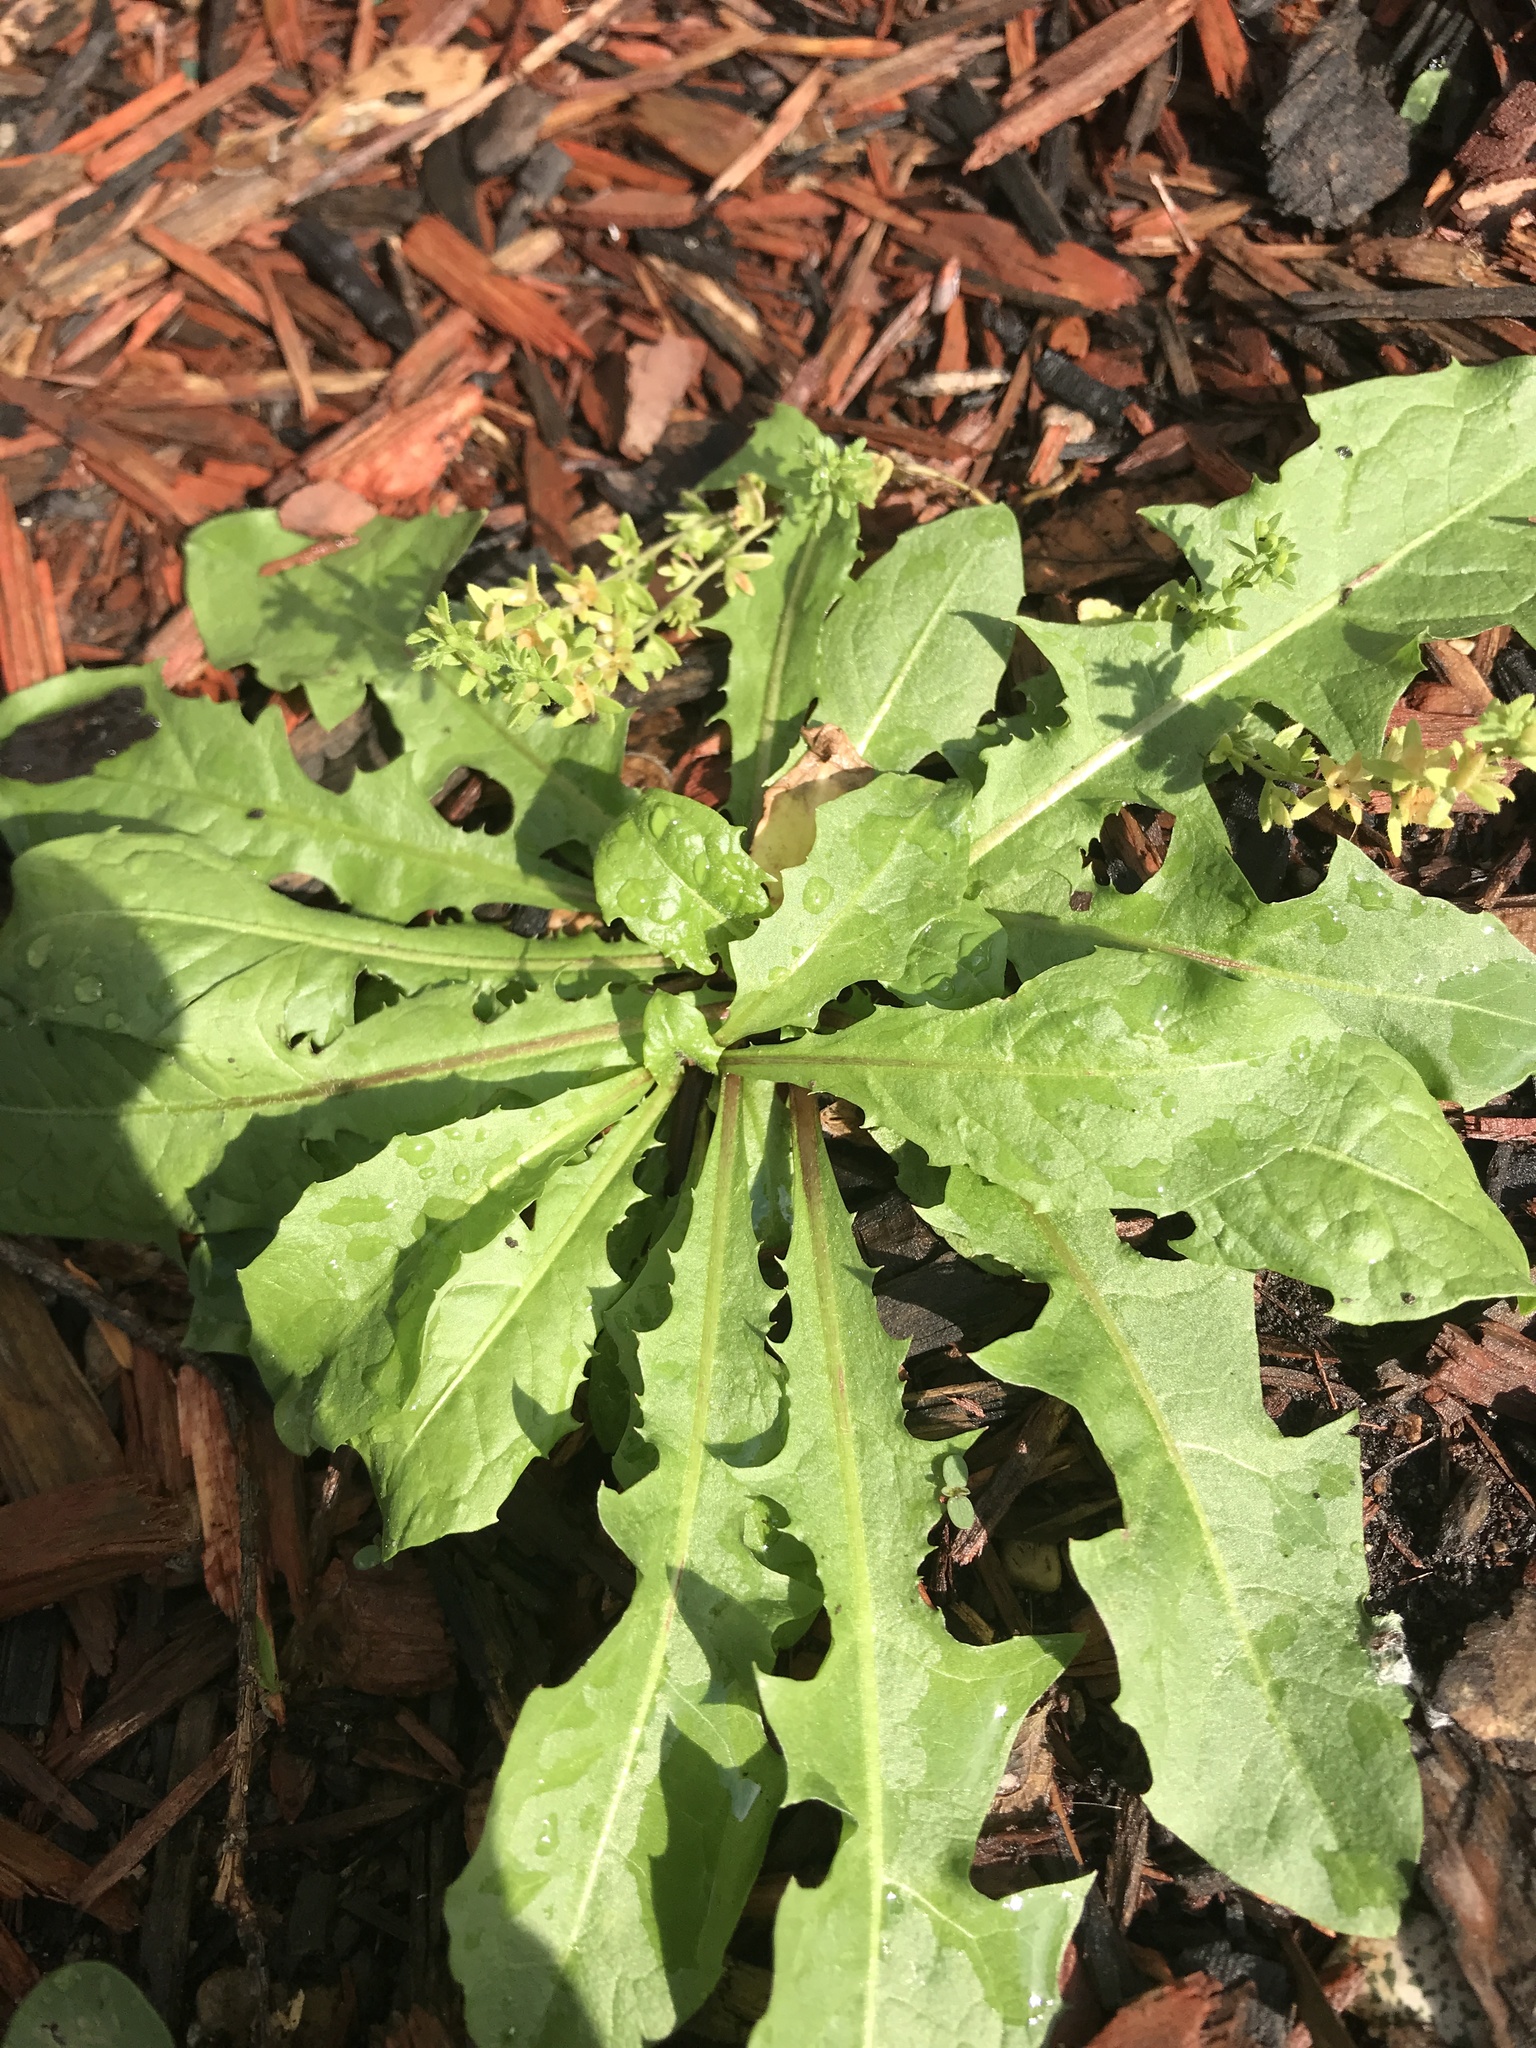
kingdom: Plantae
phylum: Tracheophyta
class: Magnoliopsida
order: Asterales
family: Asteraceae
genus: Taraxacum
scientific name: Taraxacum officinale
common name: Common dandelion
